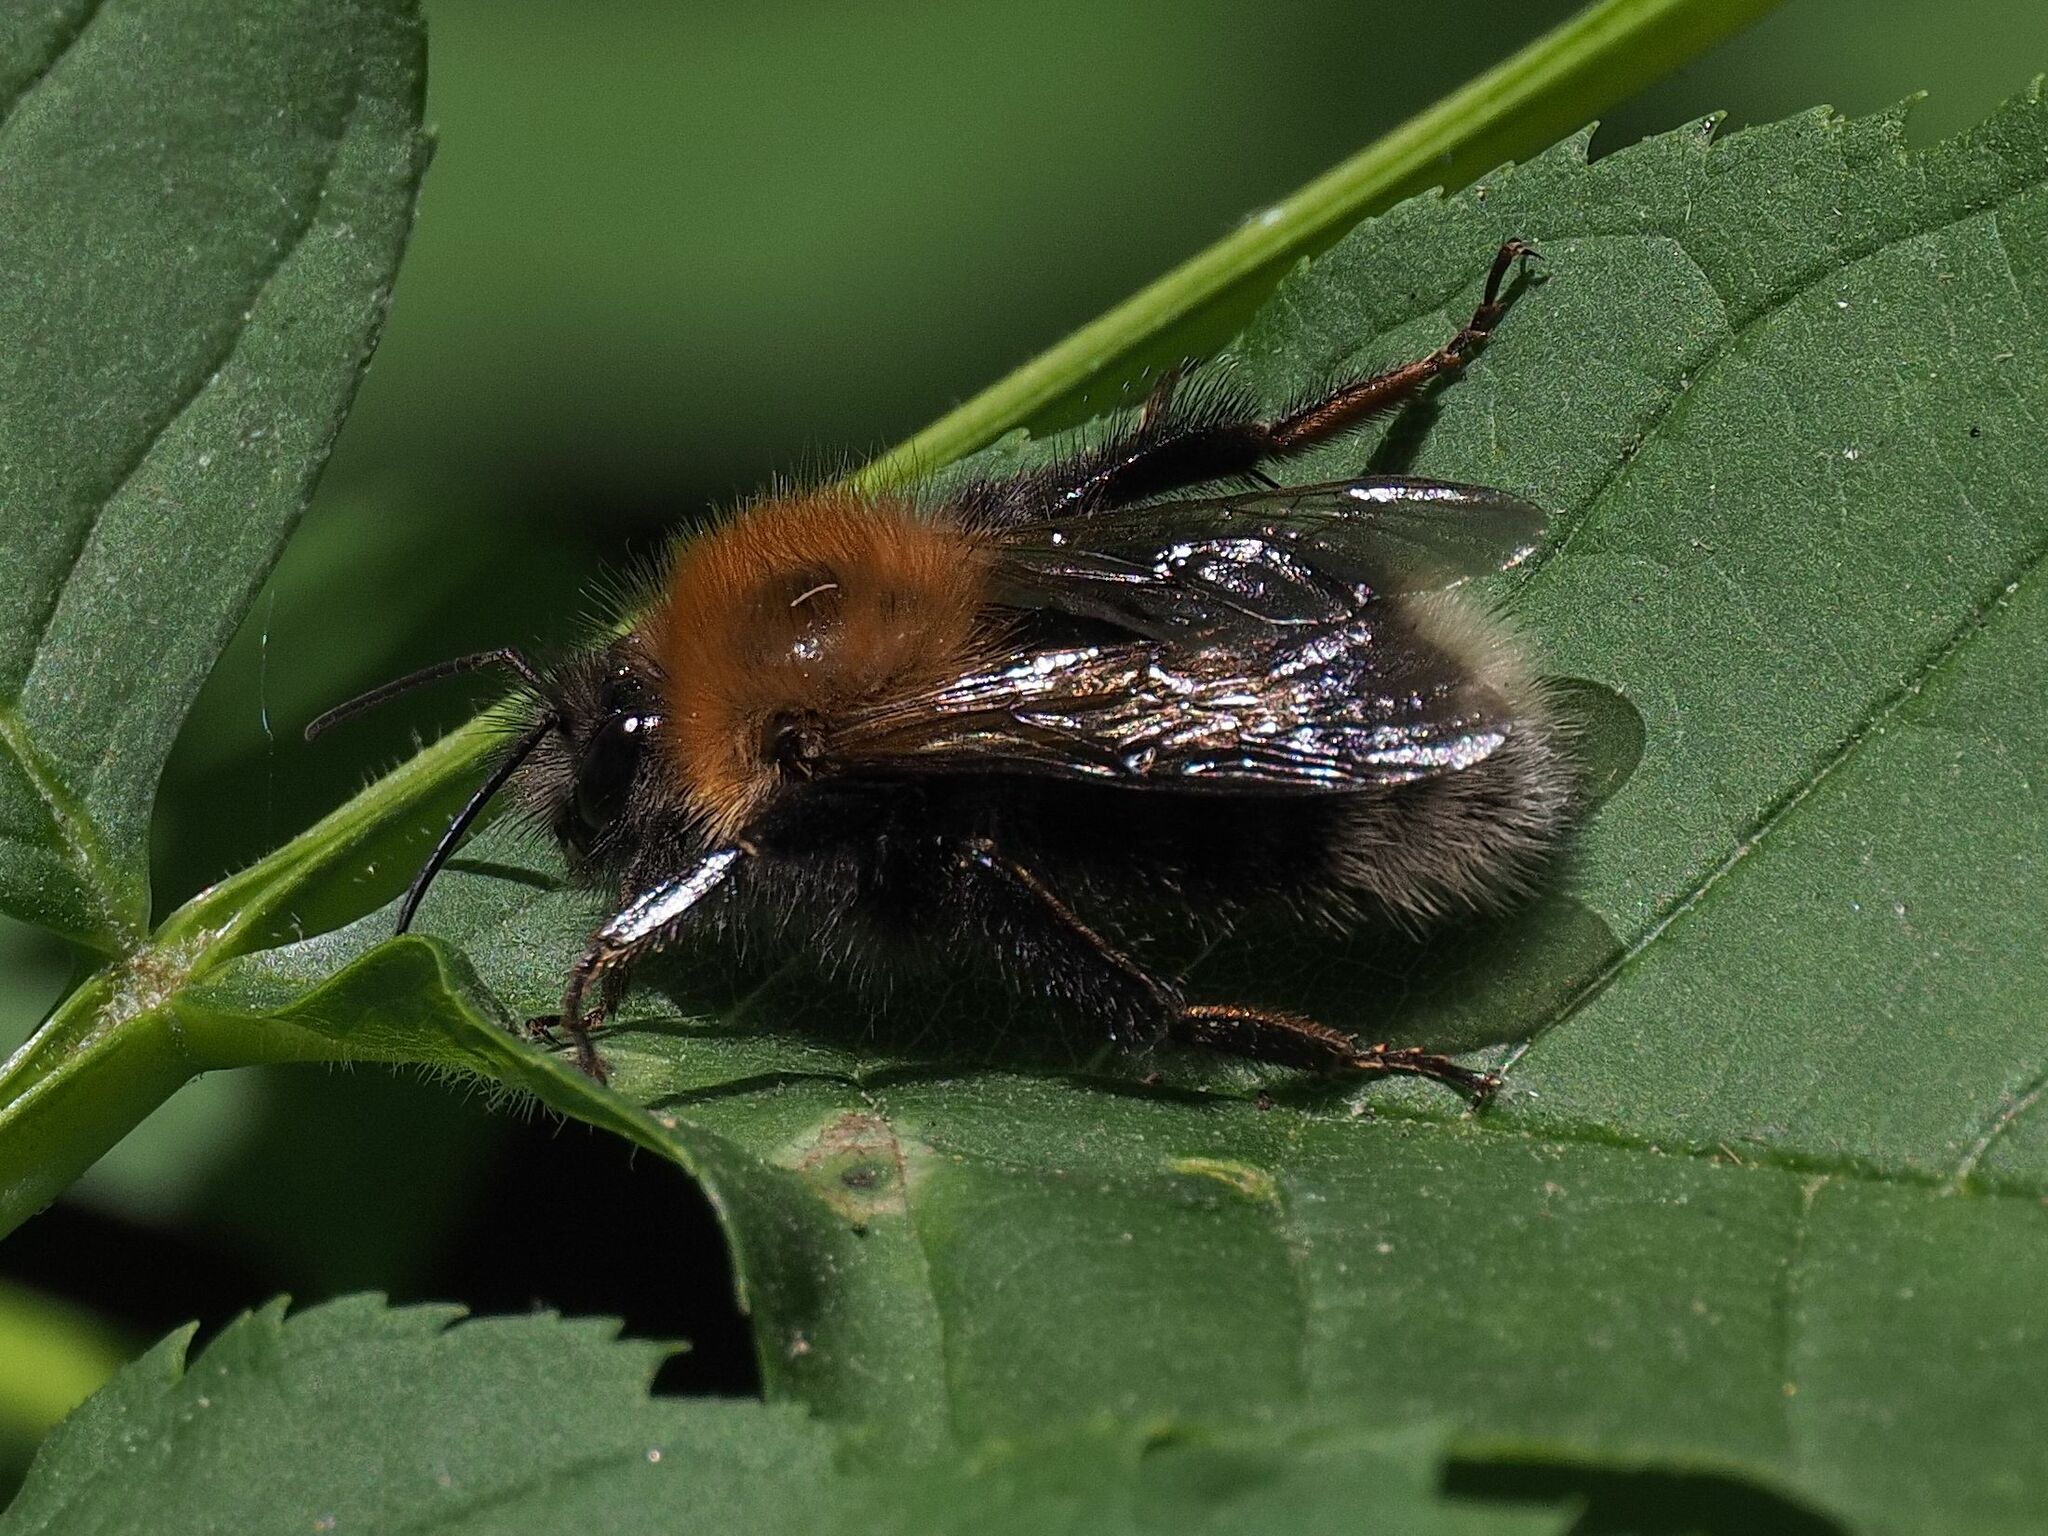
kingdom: Animalia
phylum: Arthropoda
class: Insecta
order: Hymenoptera
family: Apidae
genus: Bombus
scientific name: Bombus hypnorum
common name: New garden bumblebee
